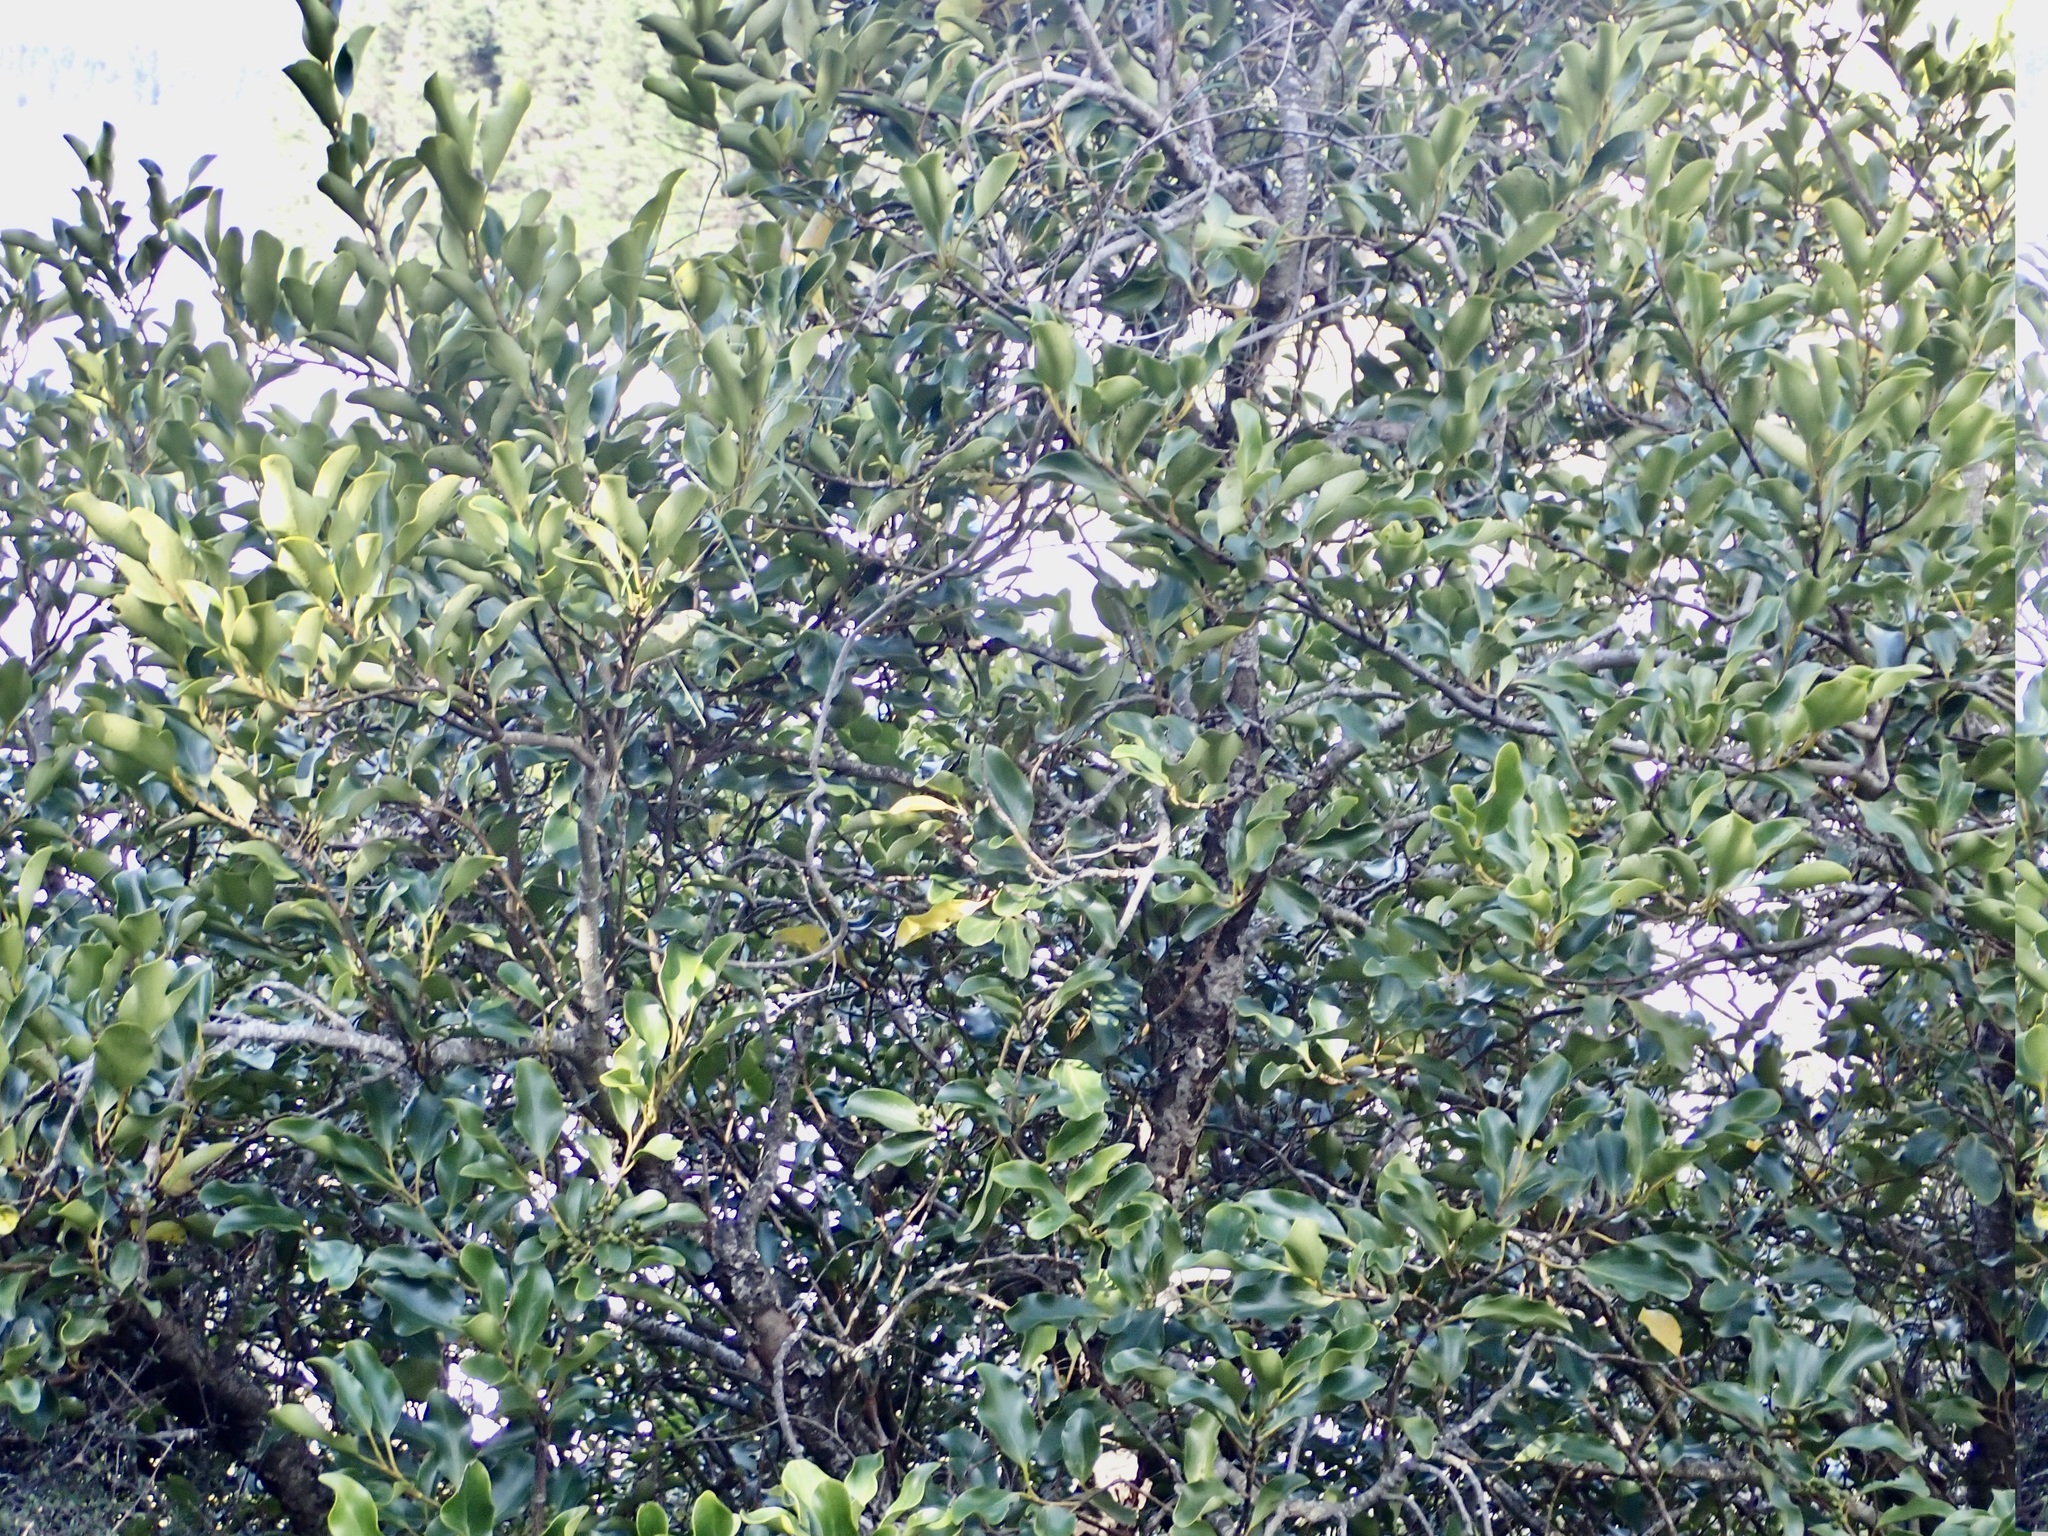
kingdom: Plantae
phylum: Tracheophyta
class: Magnoliopsida
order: Apiales
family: Griseliniaceae
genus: Griselinia
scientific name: Griselinia littoralis
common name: New zealand broadleaf
